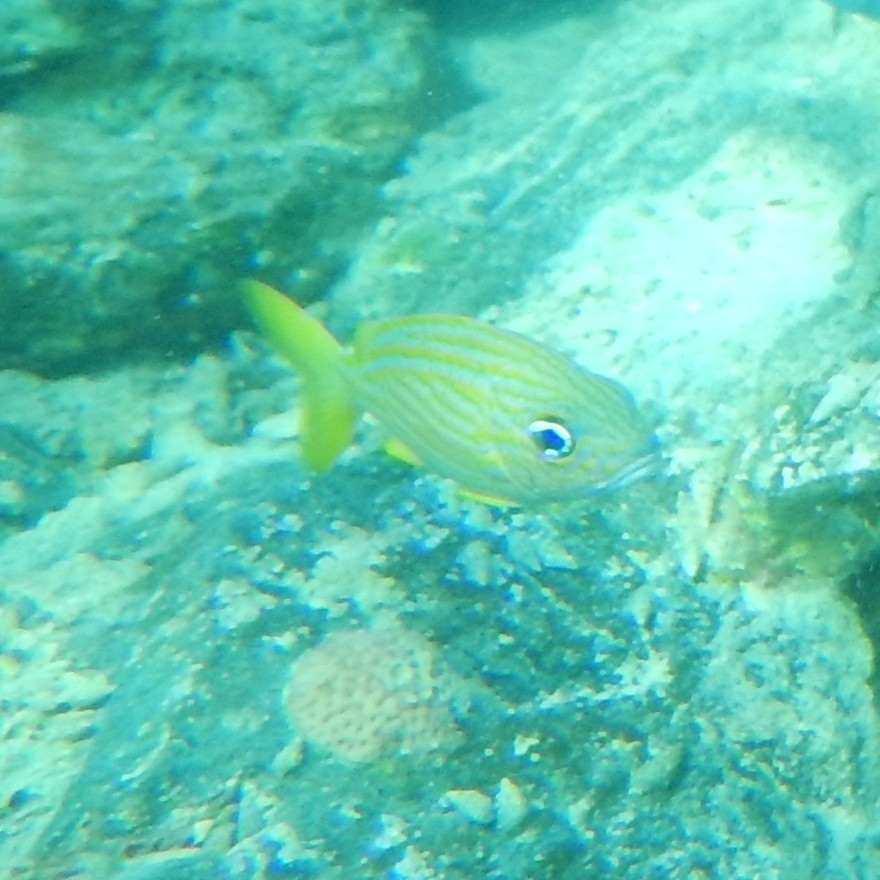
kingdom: Animalia
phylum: Chordata
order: Perciformes
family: Haemulidae
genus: Haemulon
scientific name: Haemulon flavolineatum
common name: French grunt
